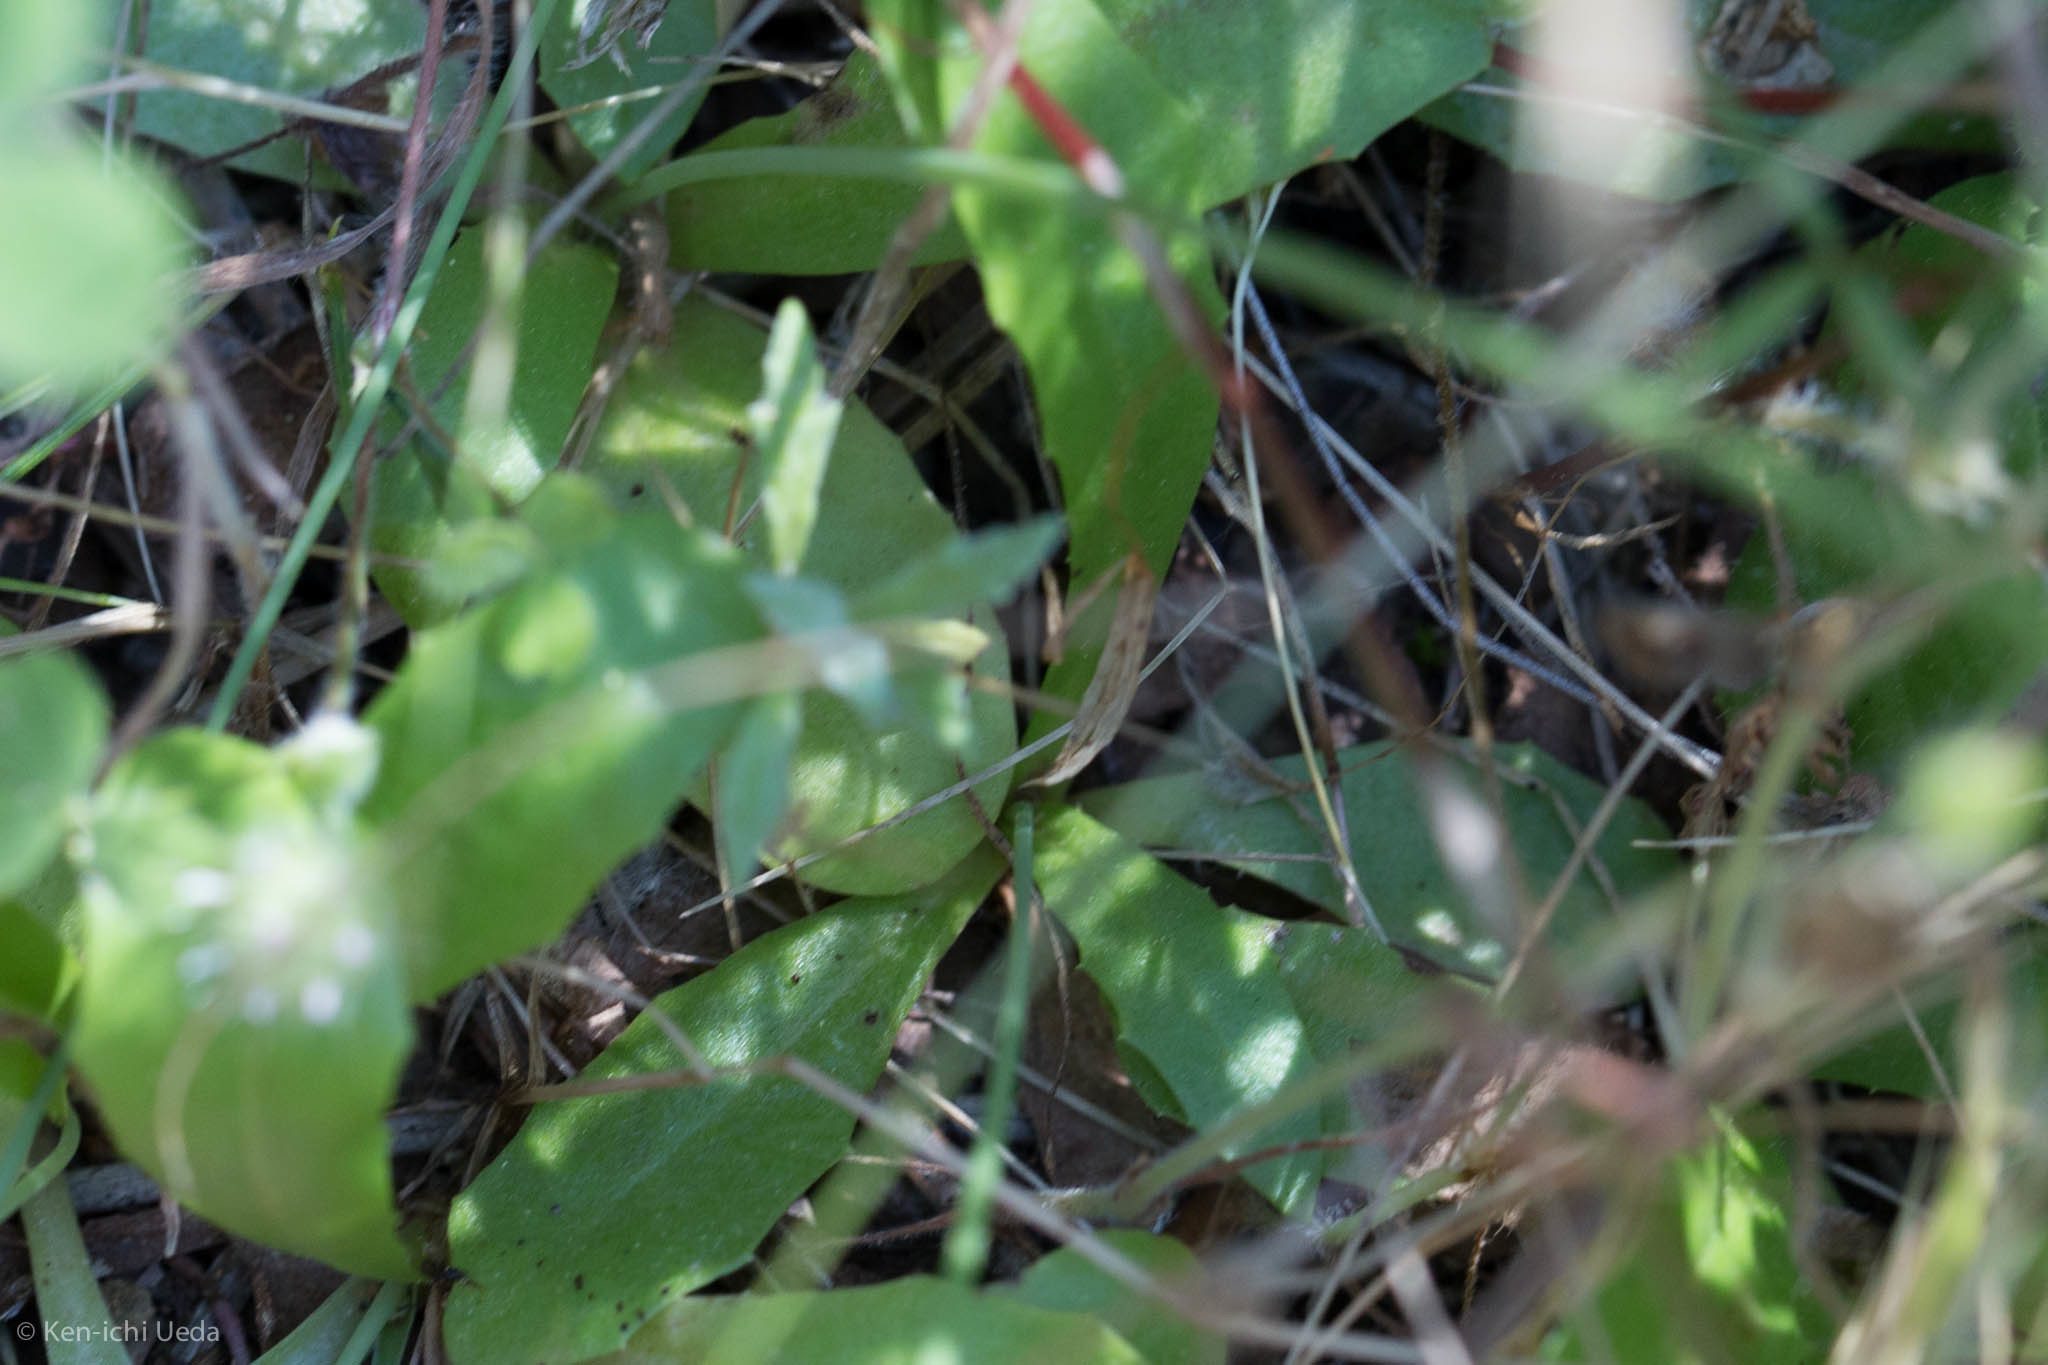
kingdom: Plantae
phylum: Tracheophyta
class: Magnoliopsida
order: Asterales
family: Asteraceae
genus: Hypochaeris
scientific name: Hypochaeris glabra
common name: Smooth catsear
